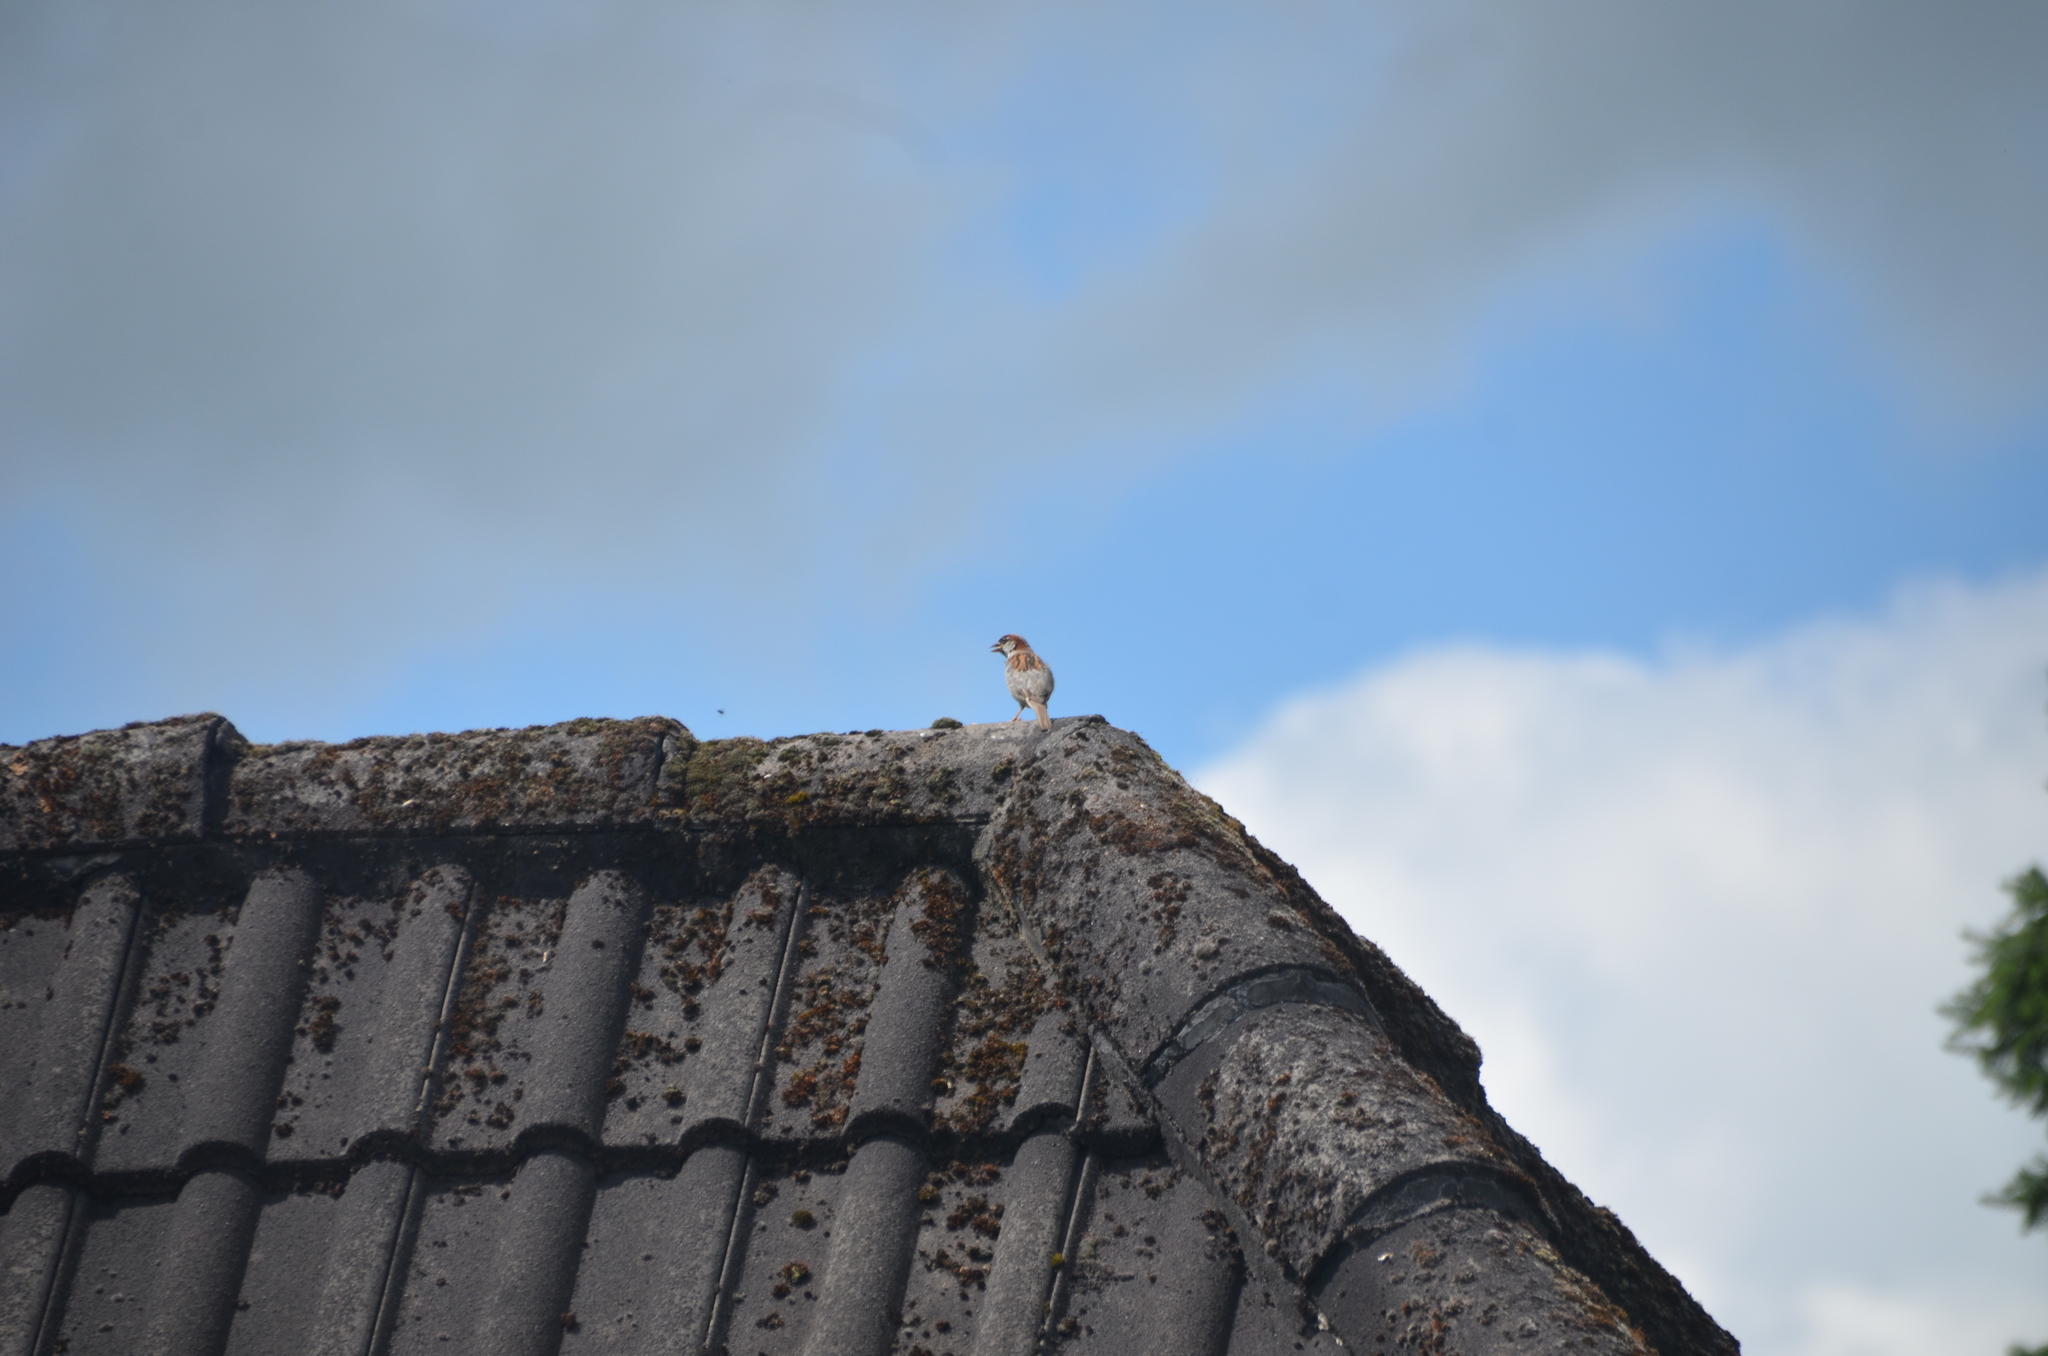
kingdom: Animalia
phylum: Chordata
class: Aves
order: Passeriformes
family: Passeridae
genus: Passer
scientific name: Passer domesticus
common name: House sparrow
